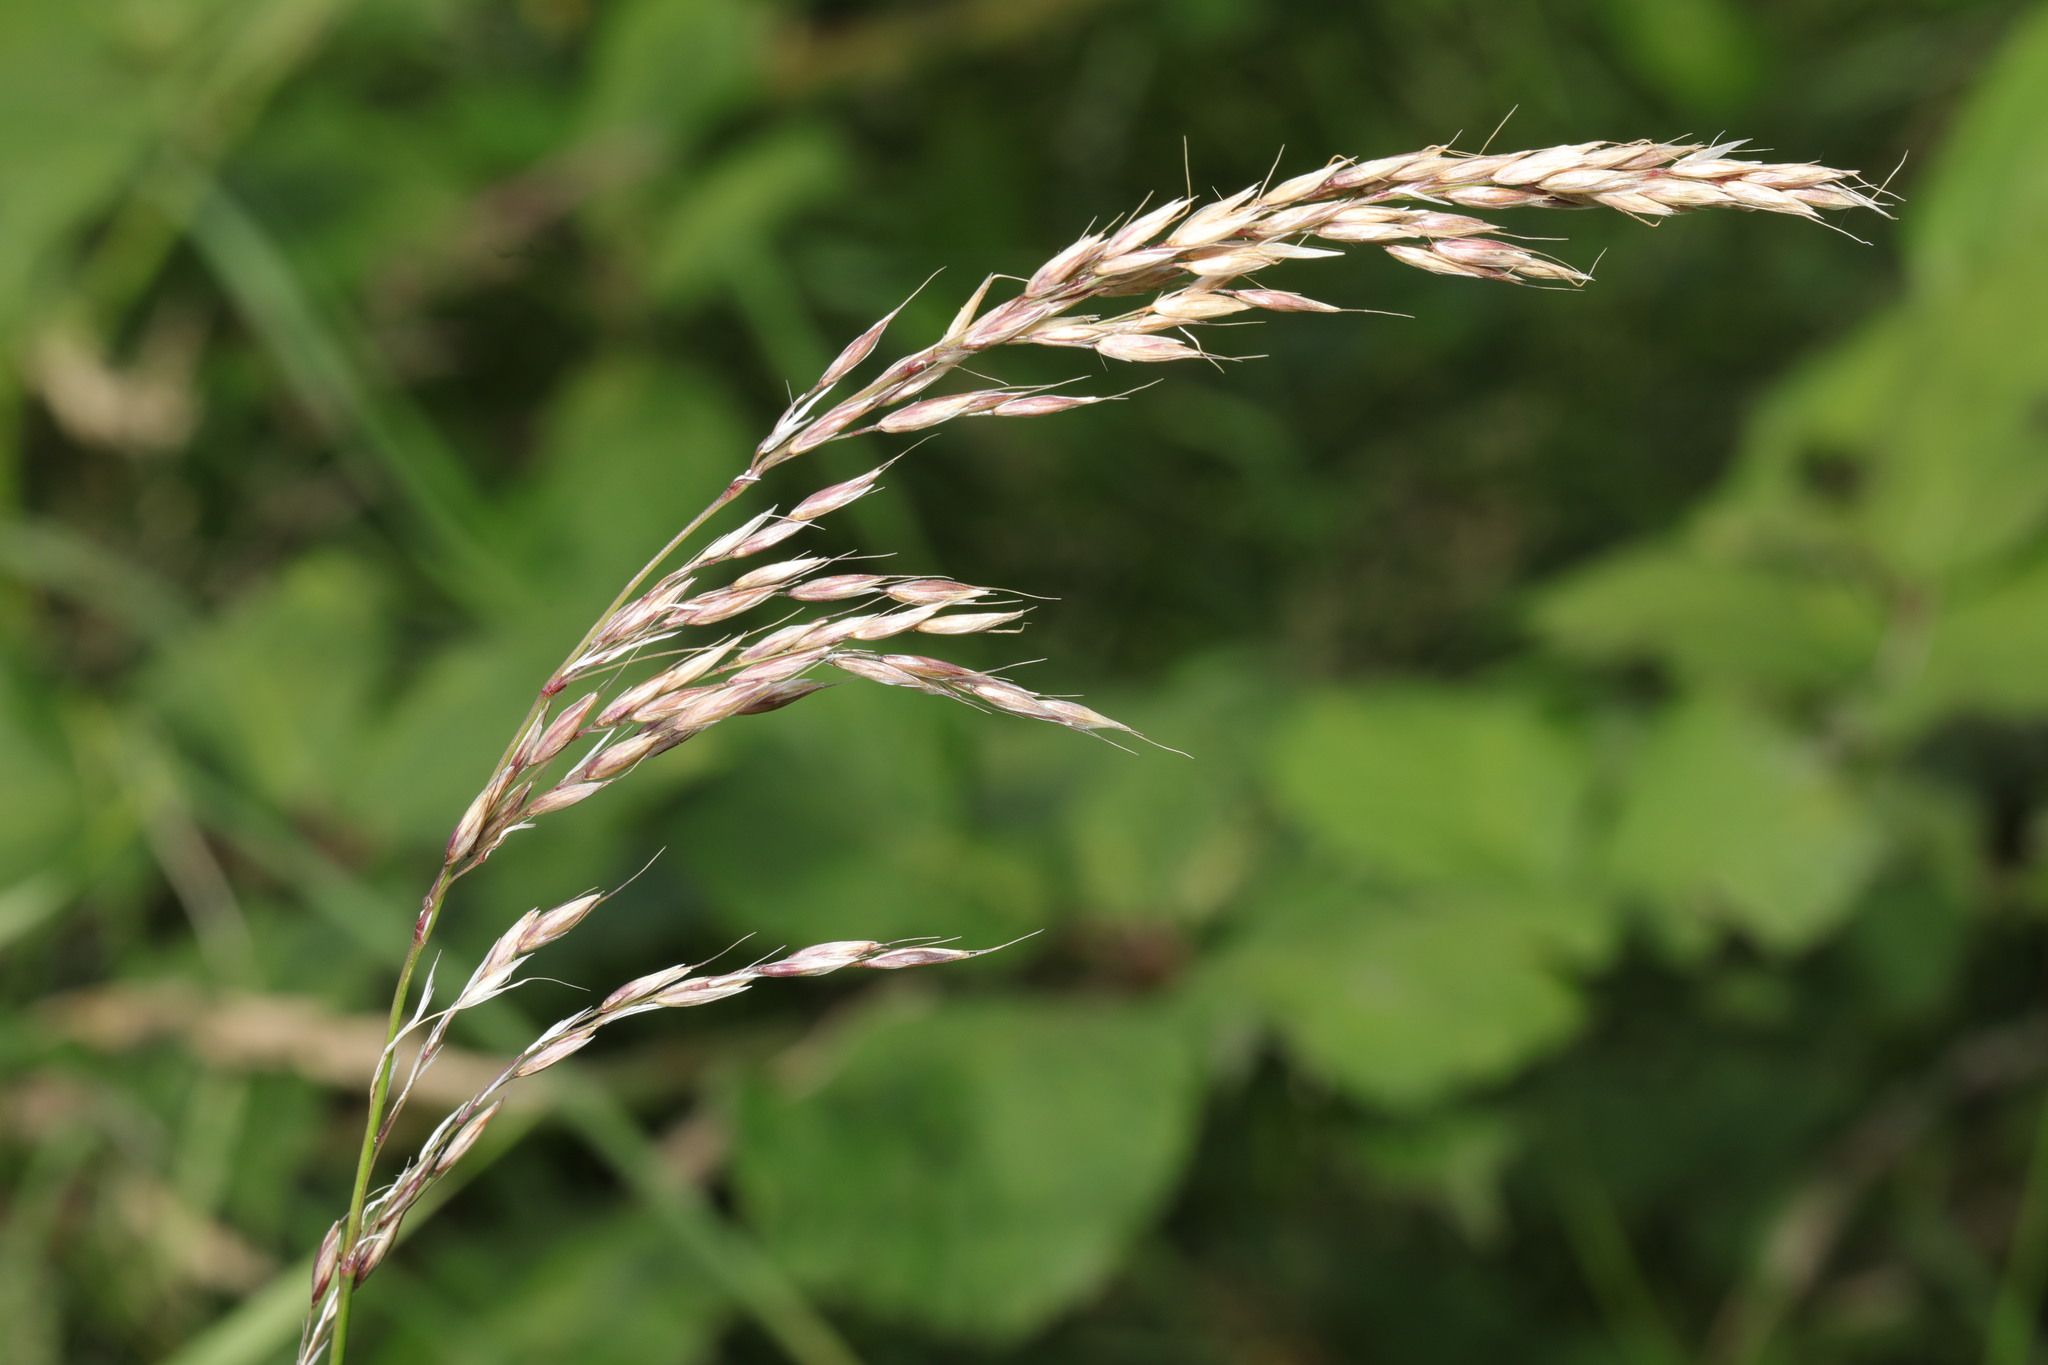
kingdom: Plantae
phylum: Tracheophyta
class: Liliopsida
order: Poales
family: Poaceae
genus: Arrhenatherum
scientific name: Arrhenatherum elatius
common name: Tall oatgrass
